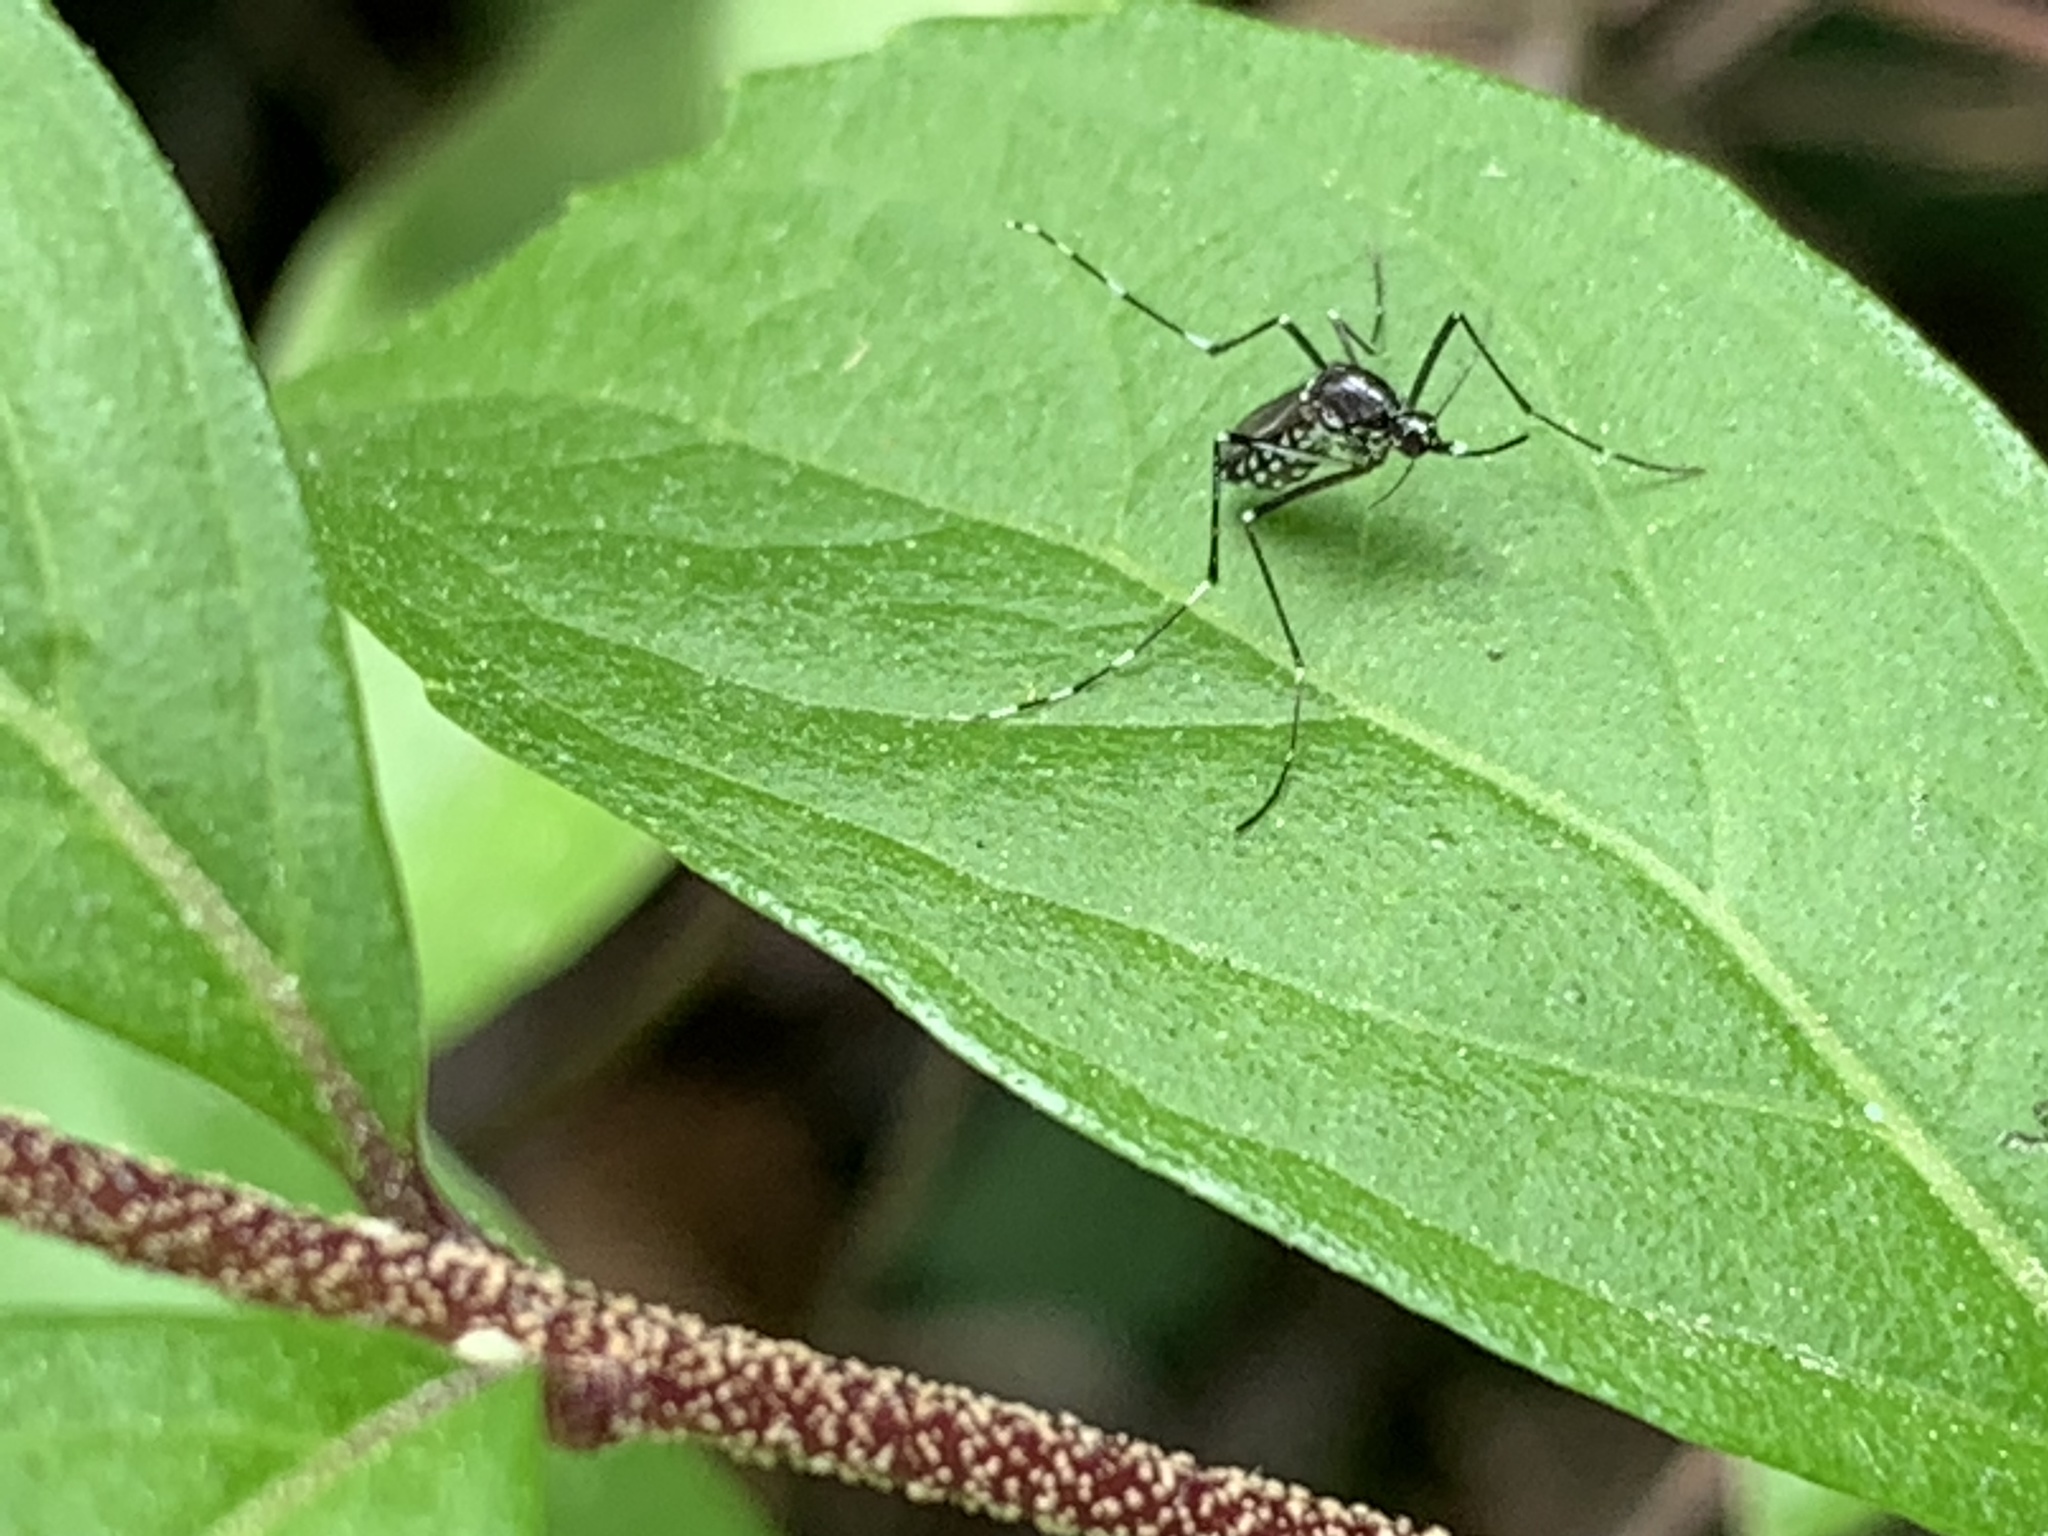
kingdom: Animalia
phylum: Arthropoda
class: Insecta
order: Diptera
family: Culicidae
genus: Aedes
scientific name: Aedes albopictus
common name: Tiger mosquito
